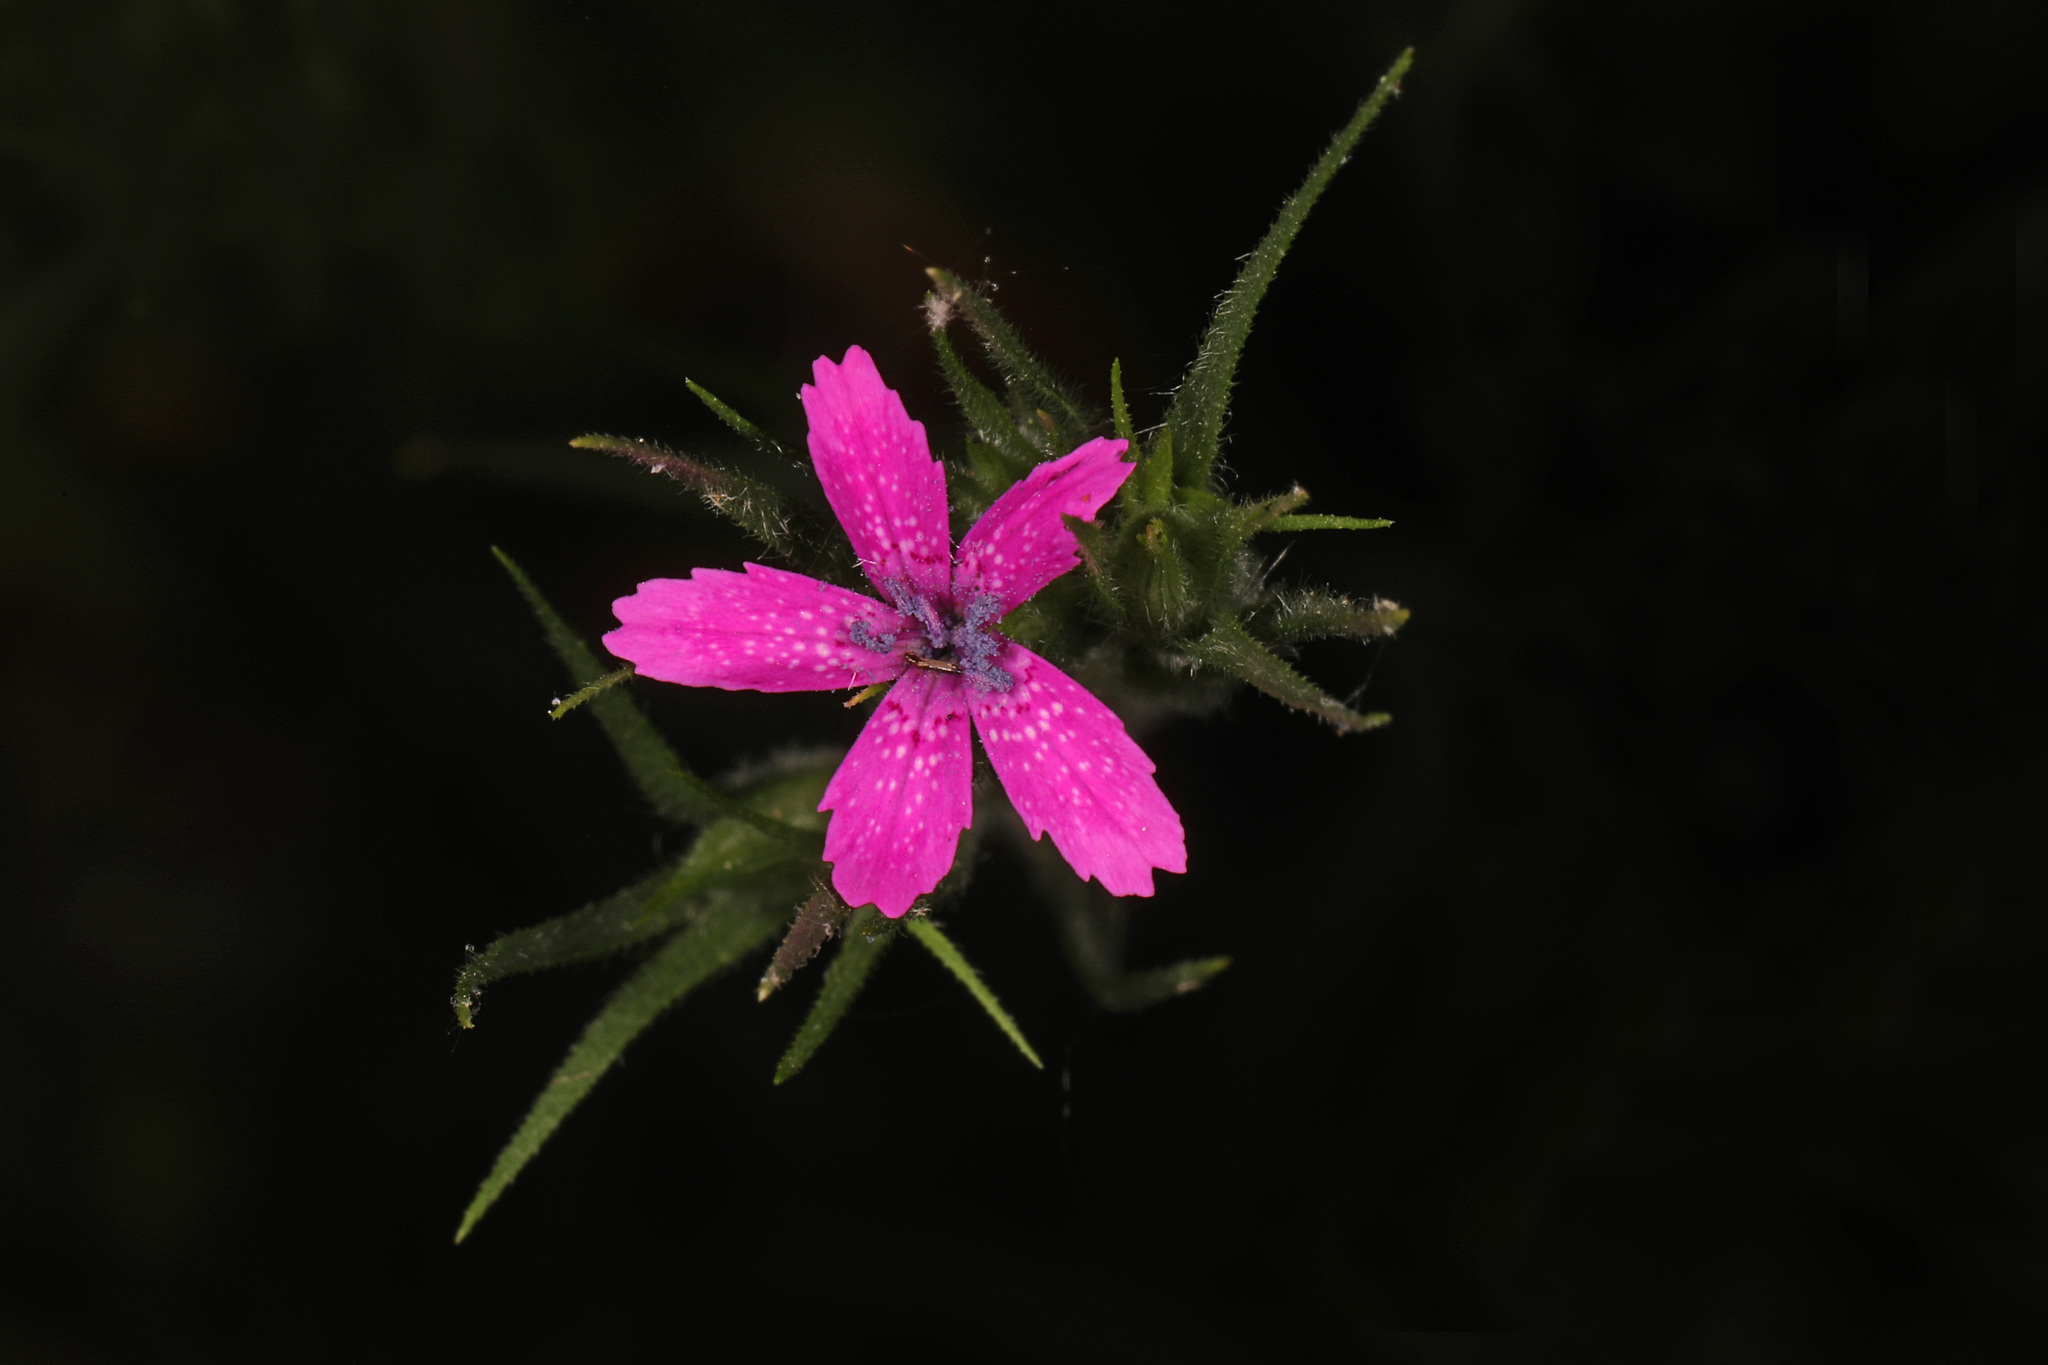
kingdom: Plantae
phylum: Tracheophyta
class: Magnoliopsida
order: Caryophyllales
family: Caryophyllaceae
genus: Dianthus
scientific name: Dianthus armeria
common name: Deptford pink
